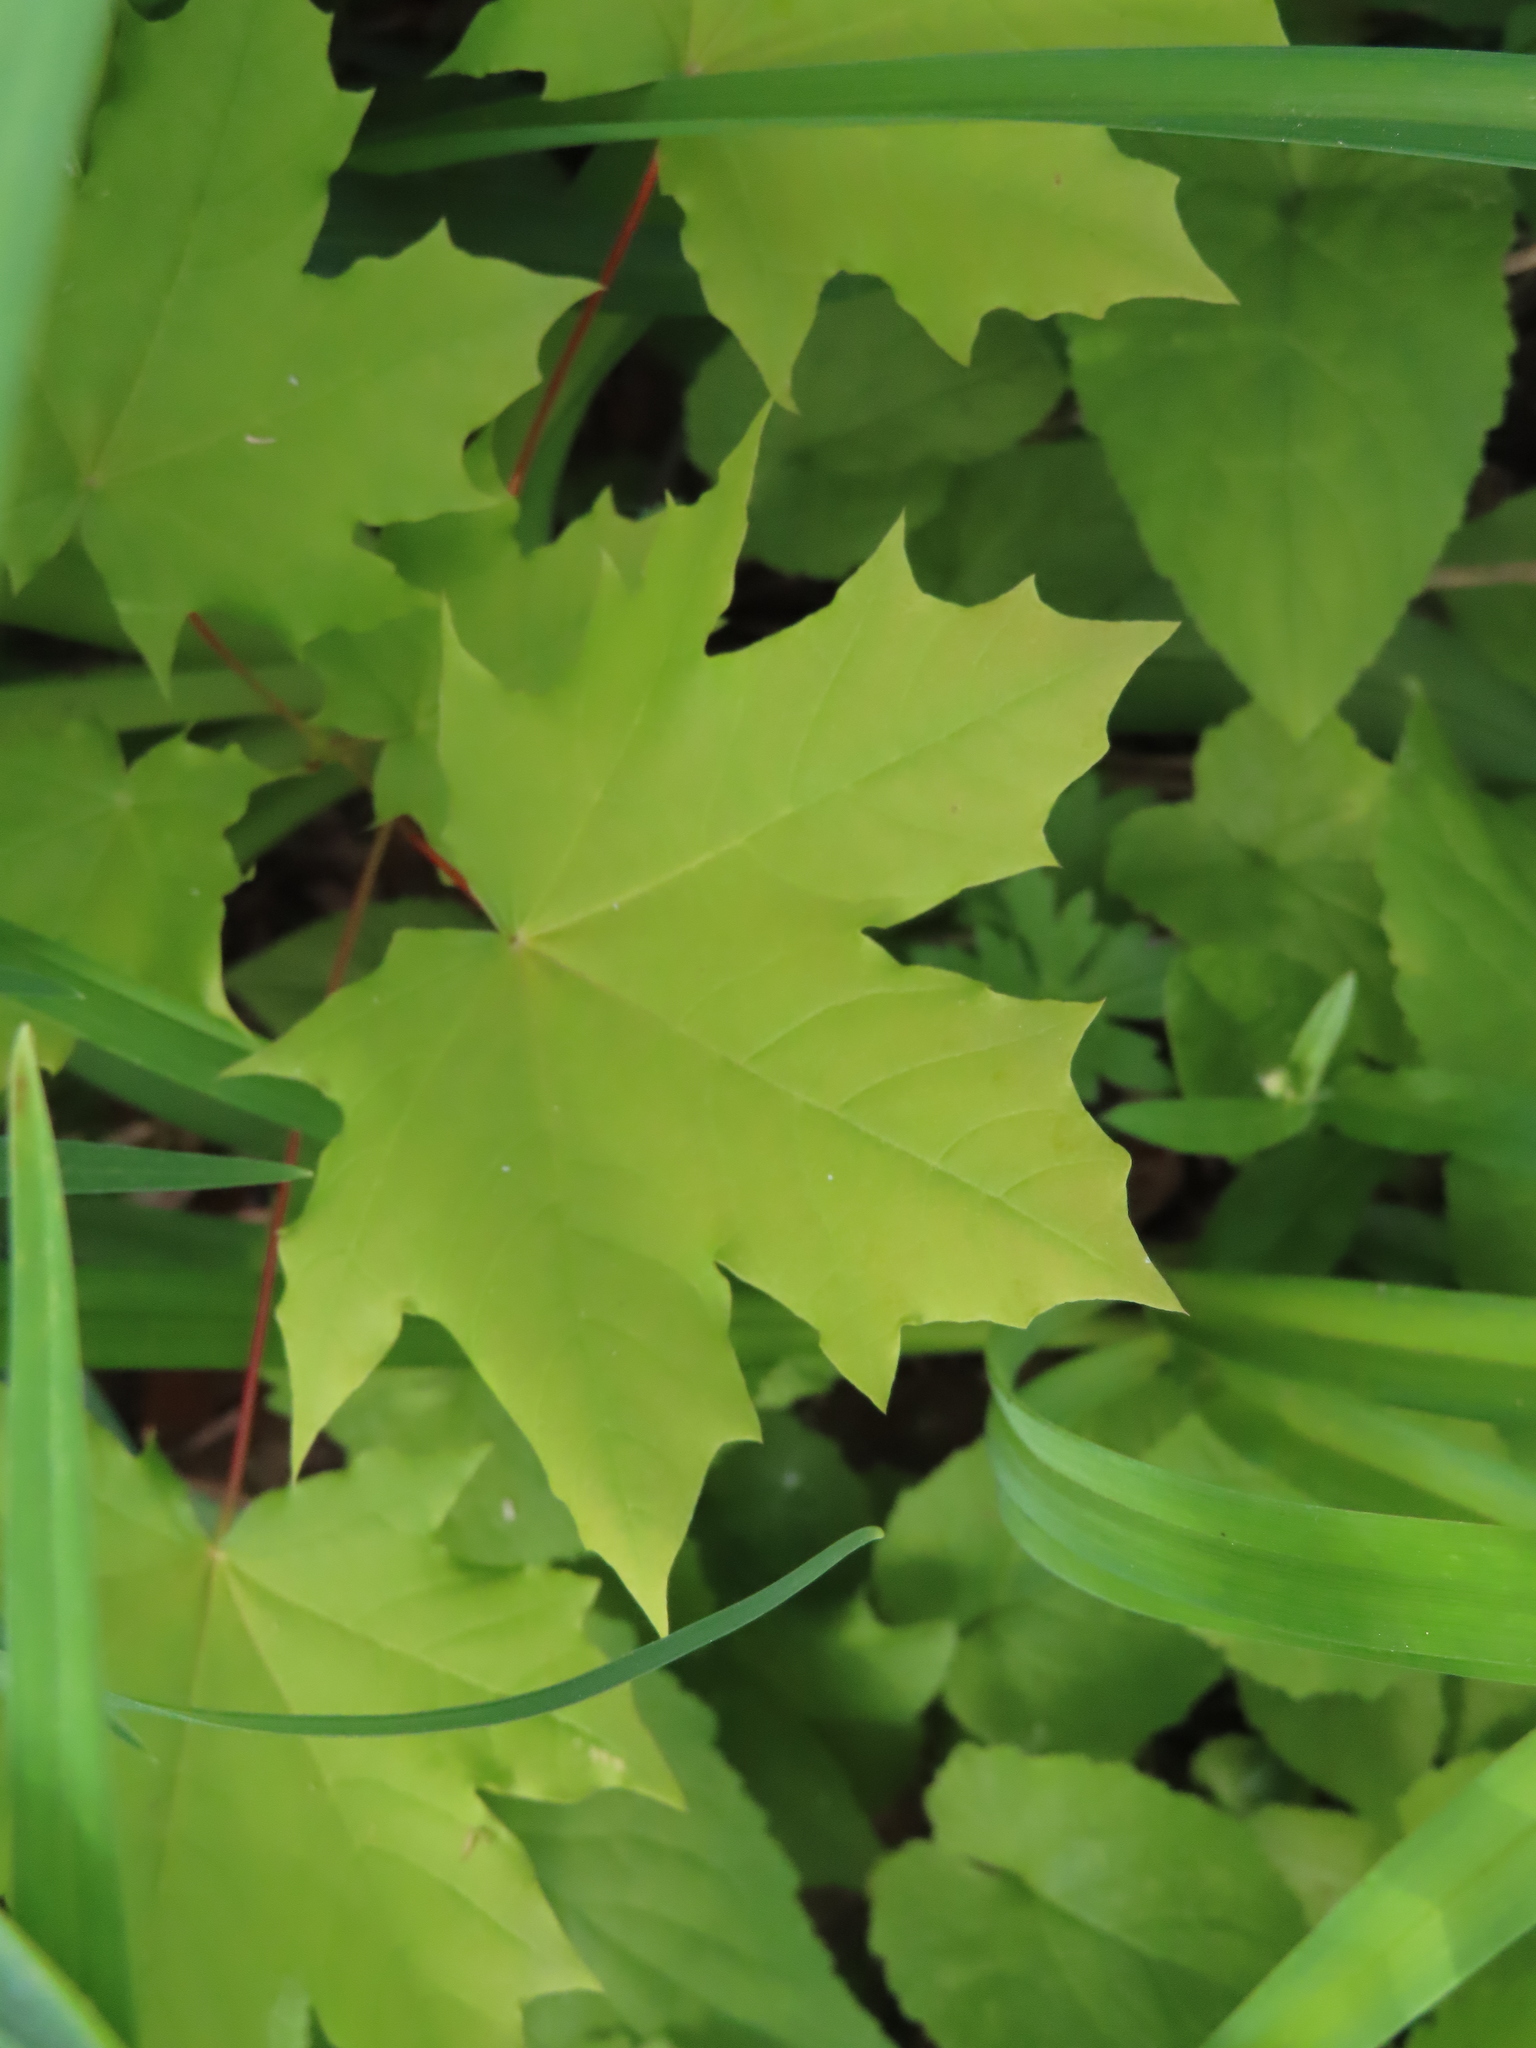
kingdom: Plantae
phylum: Tracheophyta
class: Magnoliopsida
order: Sapindales
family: Sapindaceae
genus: Acer
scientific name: Acer saccharum
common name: Sugar maple
